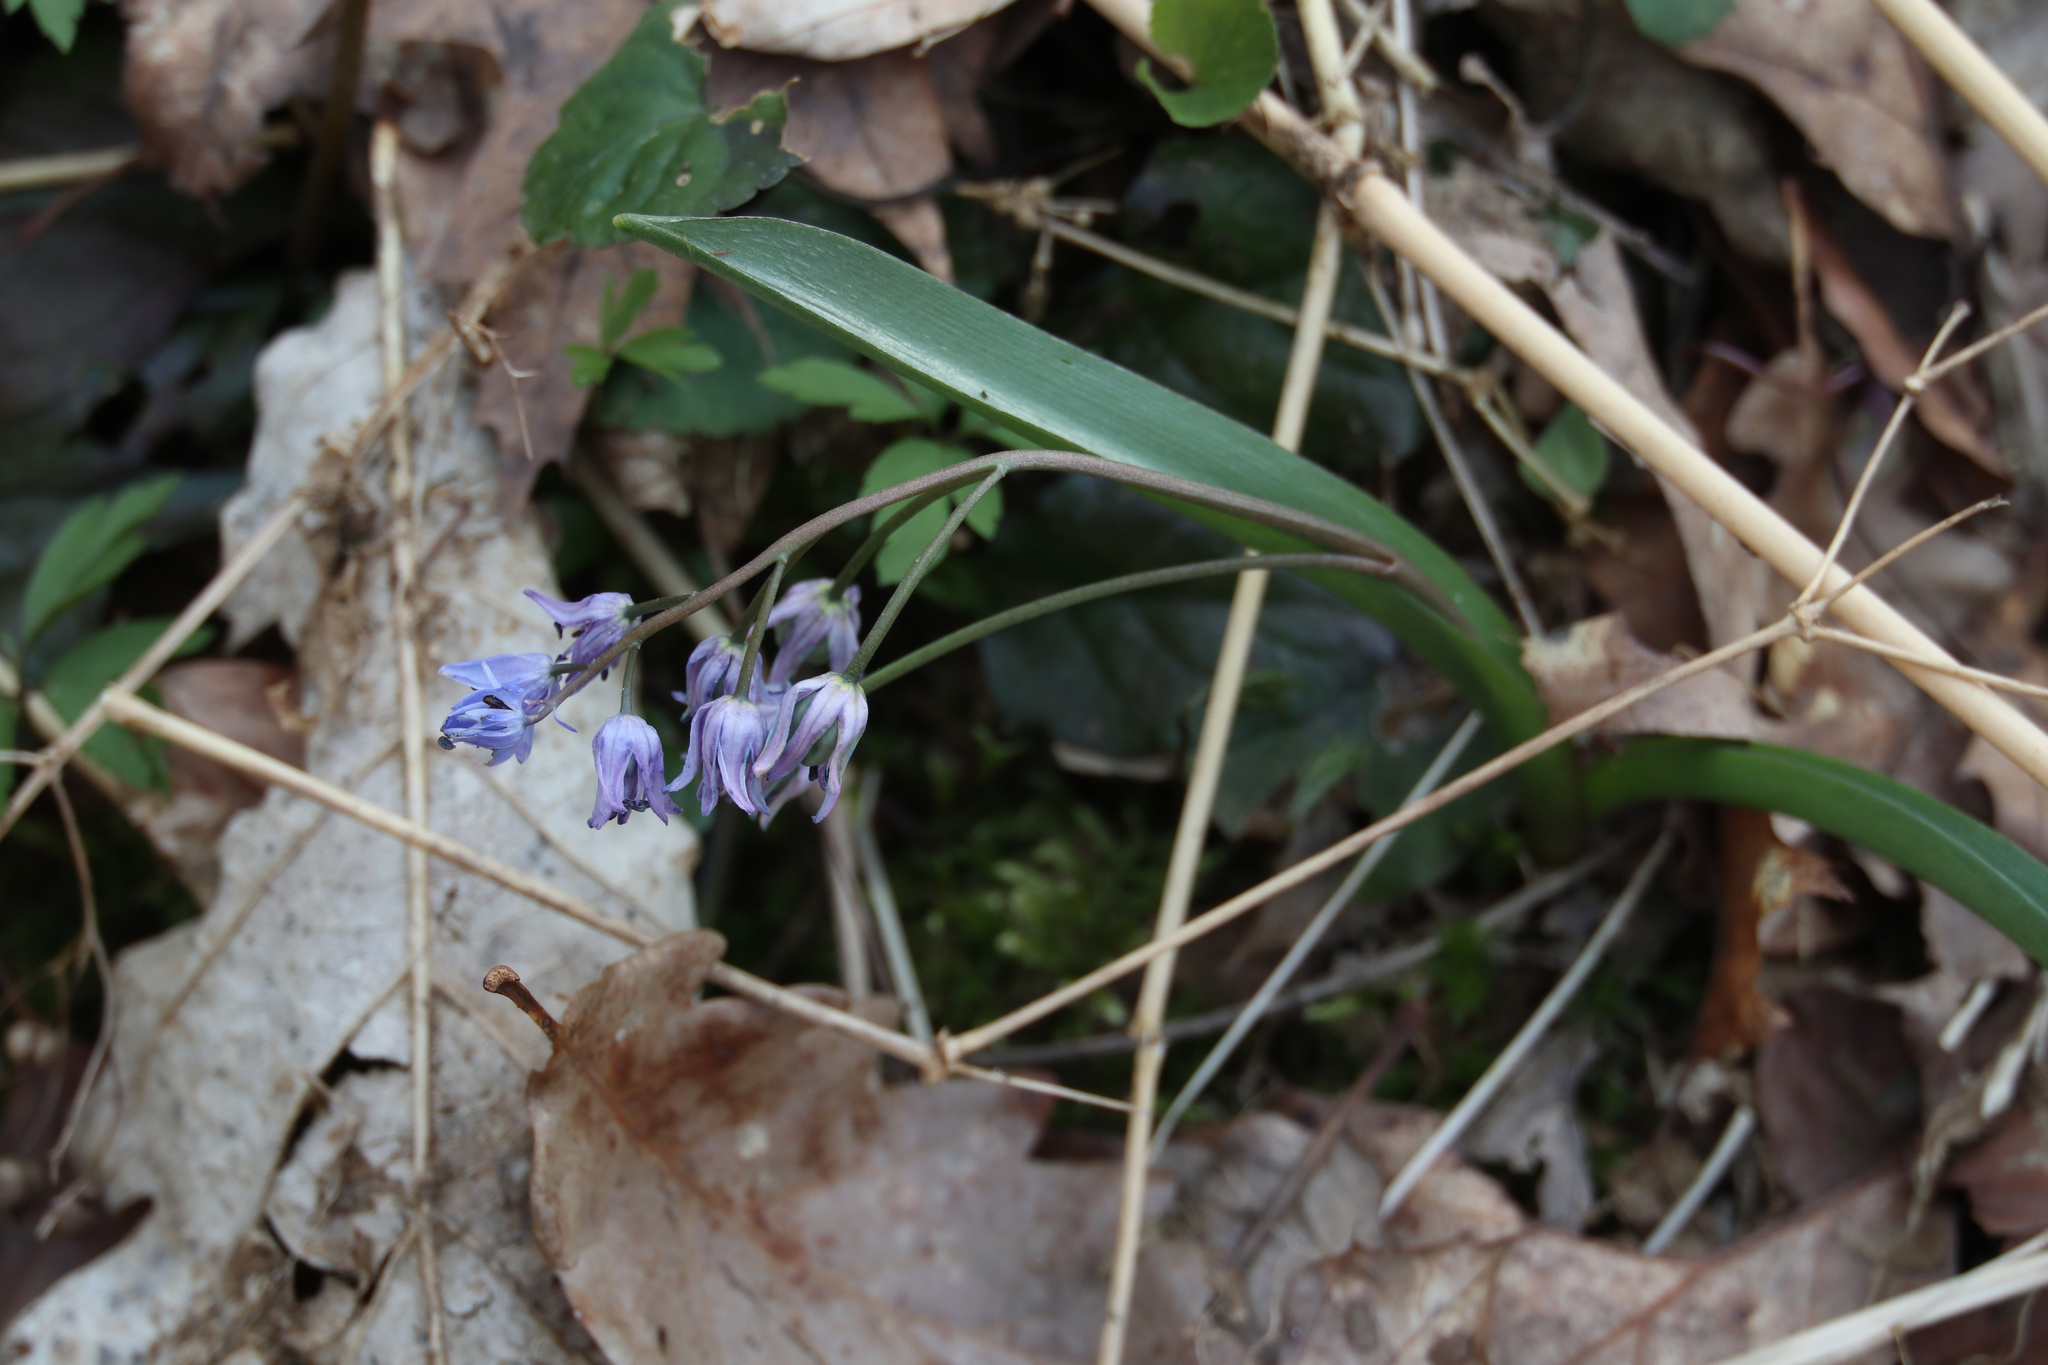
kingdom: Plantae
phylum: Tracheophyta
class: Liliopsida
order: Asparagales
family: Asparagaceae
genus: Scilla
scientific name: Scilla bifolia
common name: Alpine squill
